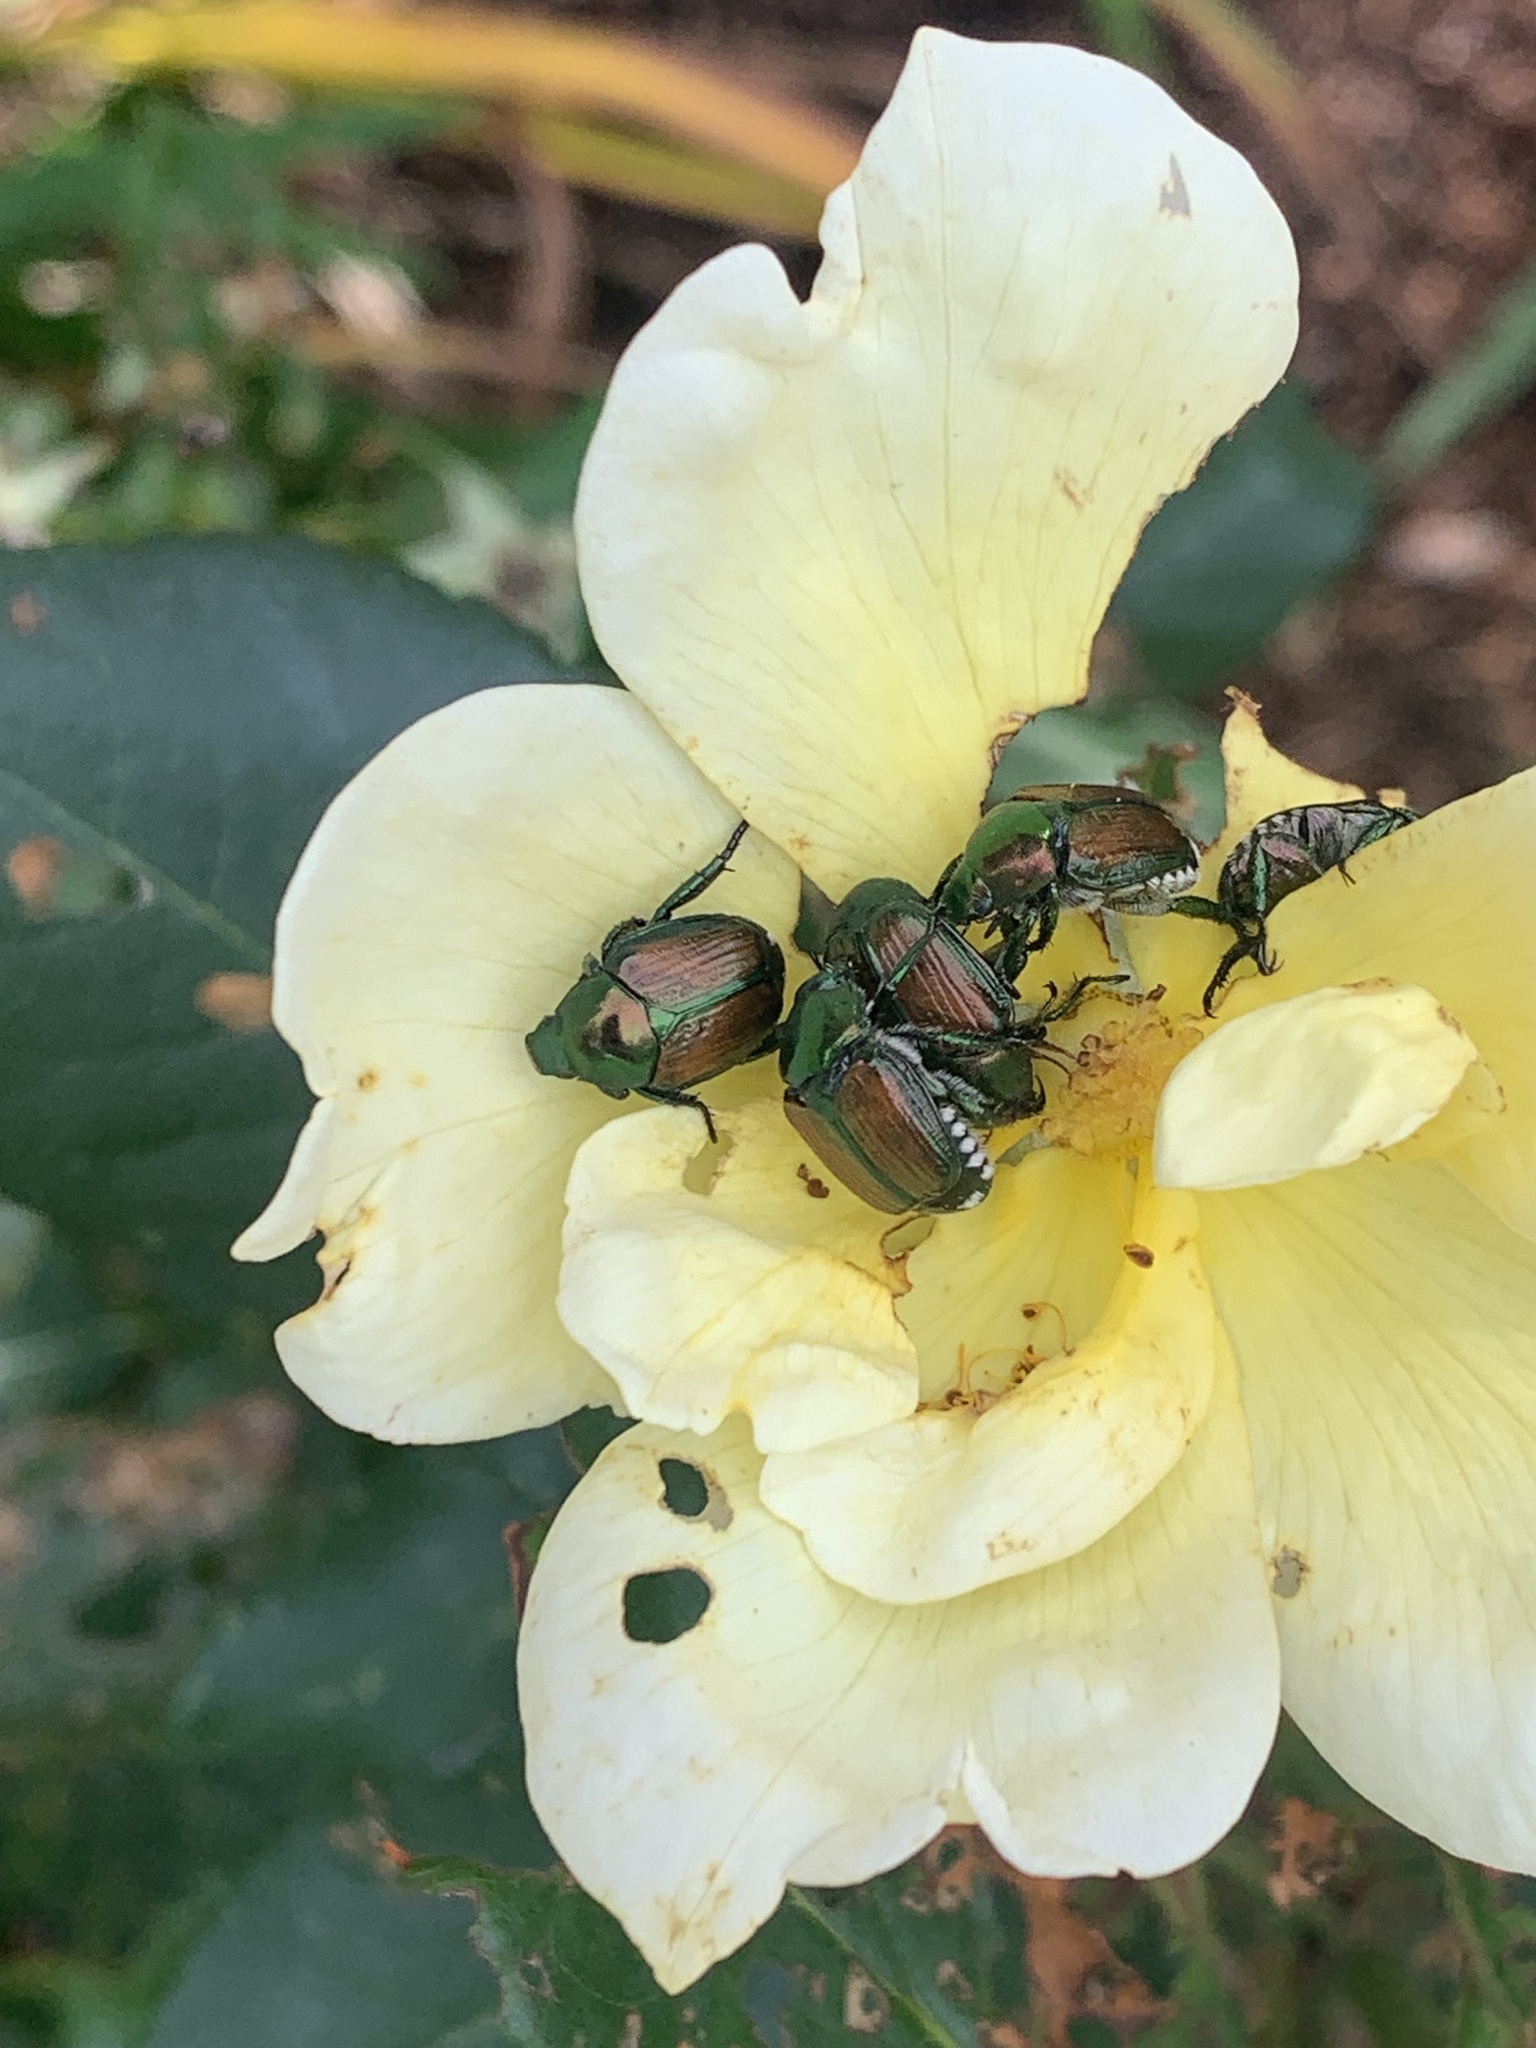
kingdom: Animalia
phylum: Arthropoda
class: Insecta
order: Coleoptera
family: Scarabaeidae
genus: Popillia
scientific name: Popillia japonica
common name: Japanese beetle
